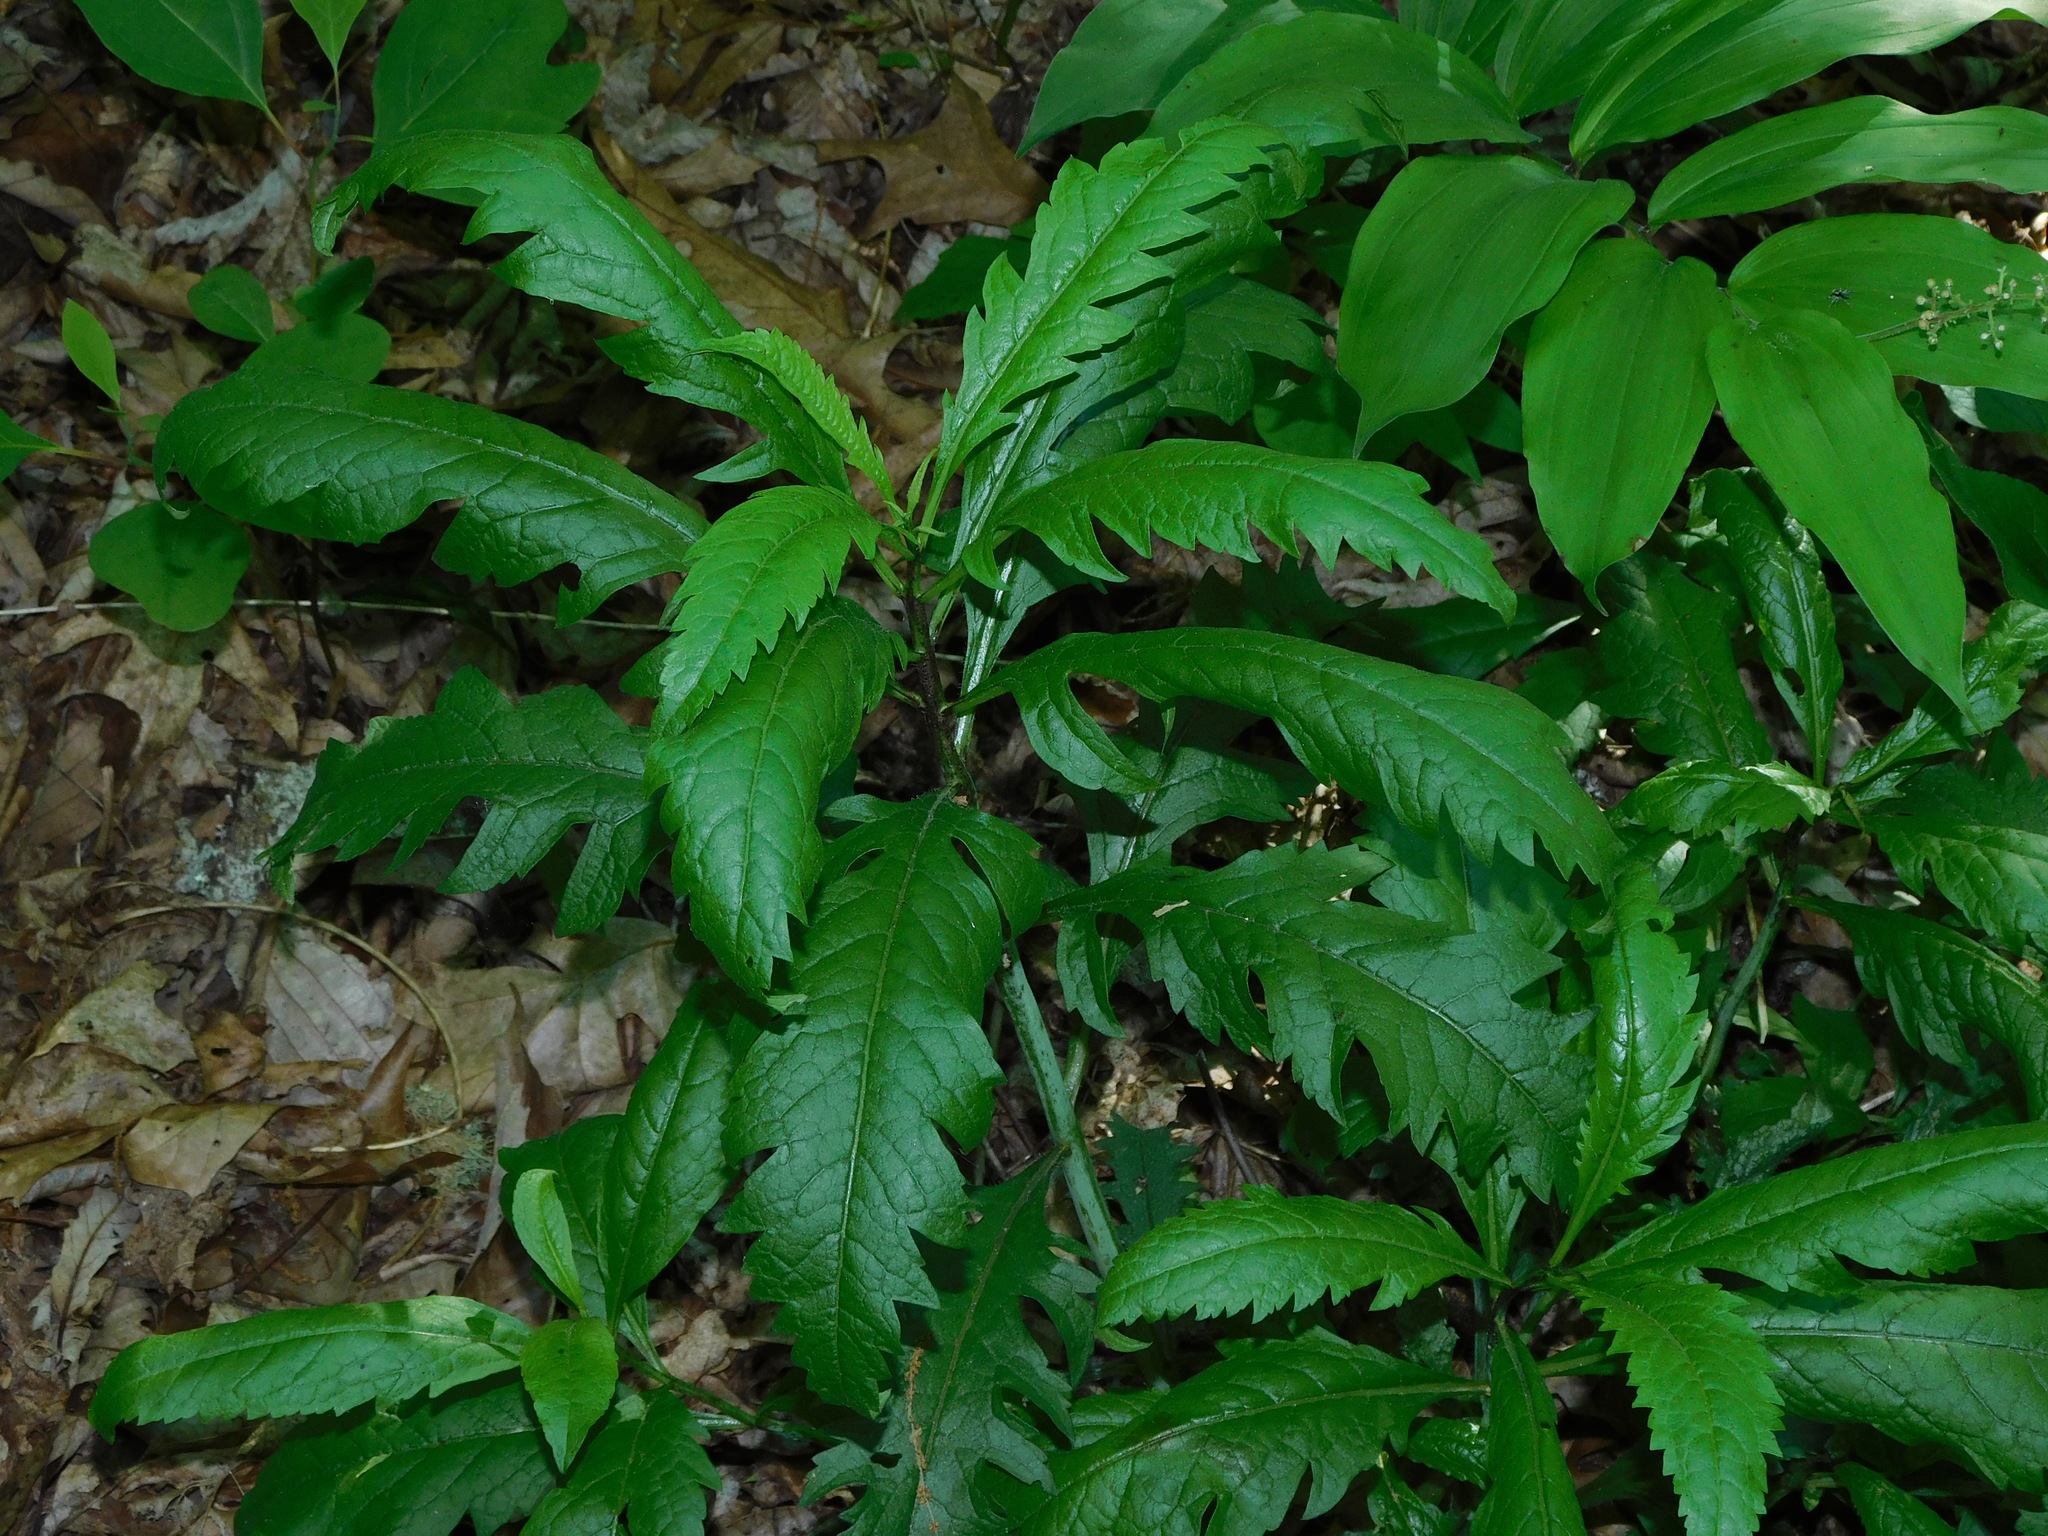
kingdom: Plantae
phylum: Tracheophyta
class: Magnoliopsida
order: Lamiales
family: Orobanchaceae
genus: Aureolaria
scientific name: Aureolaria flava
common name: Smooth false foxglove
